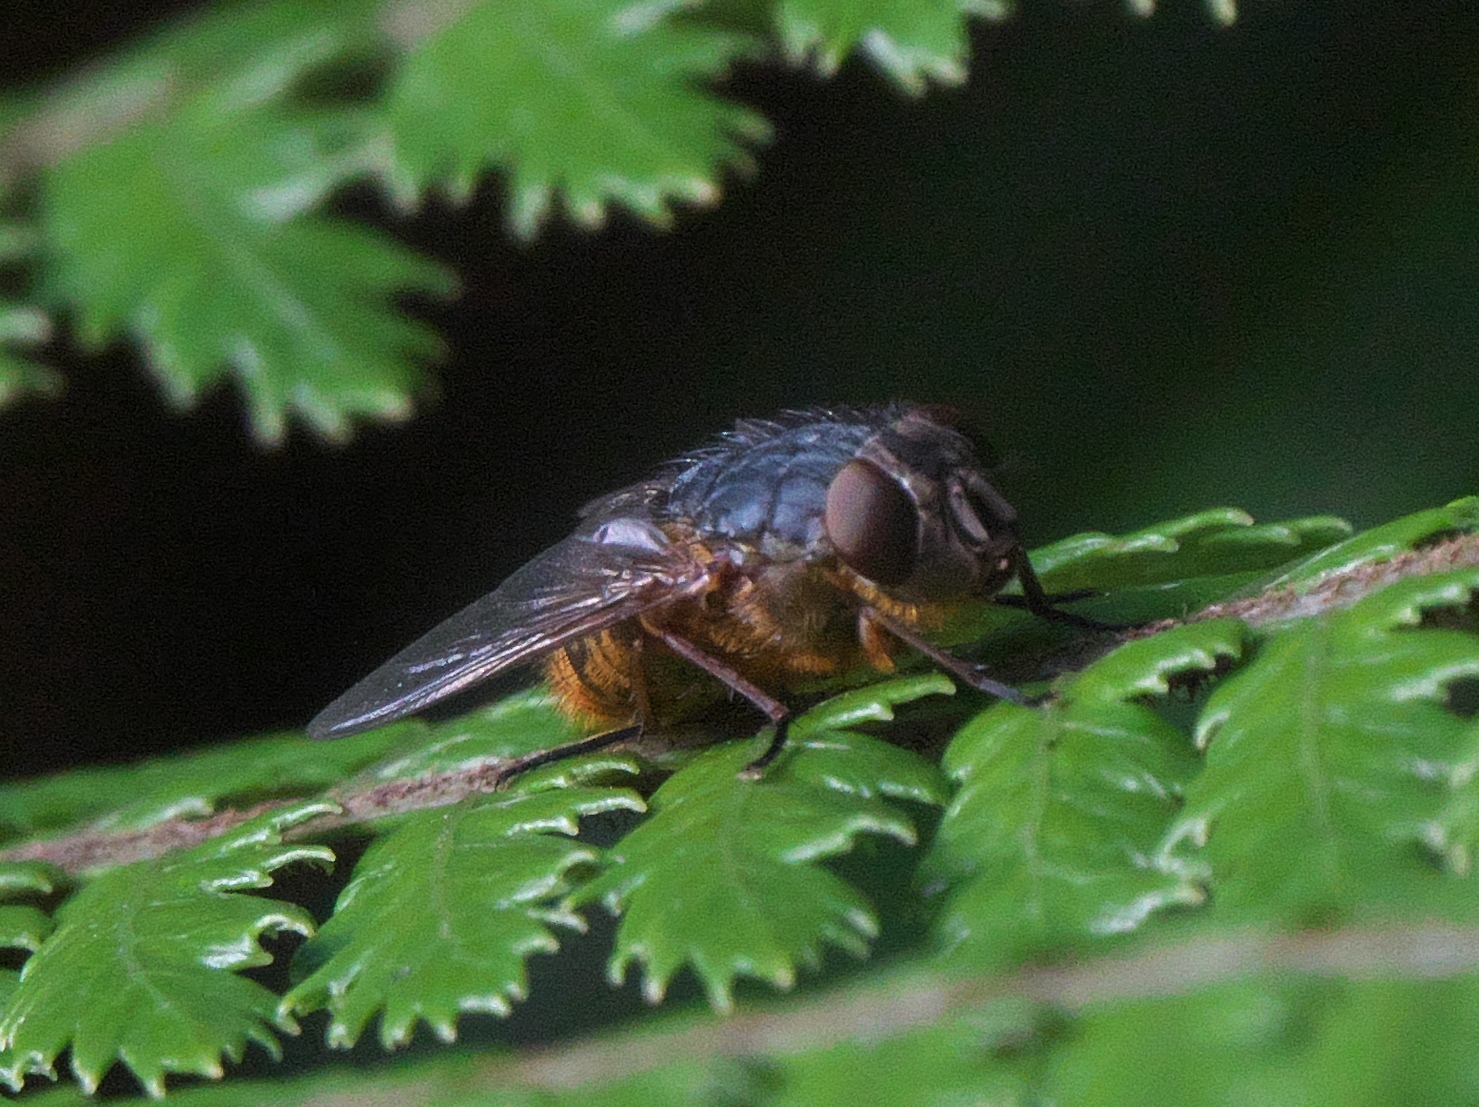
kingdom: Animalia
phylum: Arthropoda
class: Insecta
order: Diptera
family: Calliphoridae
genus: Calliphora
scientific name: Calliphora stygia
